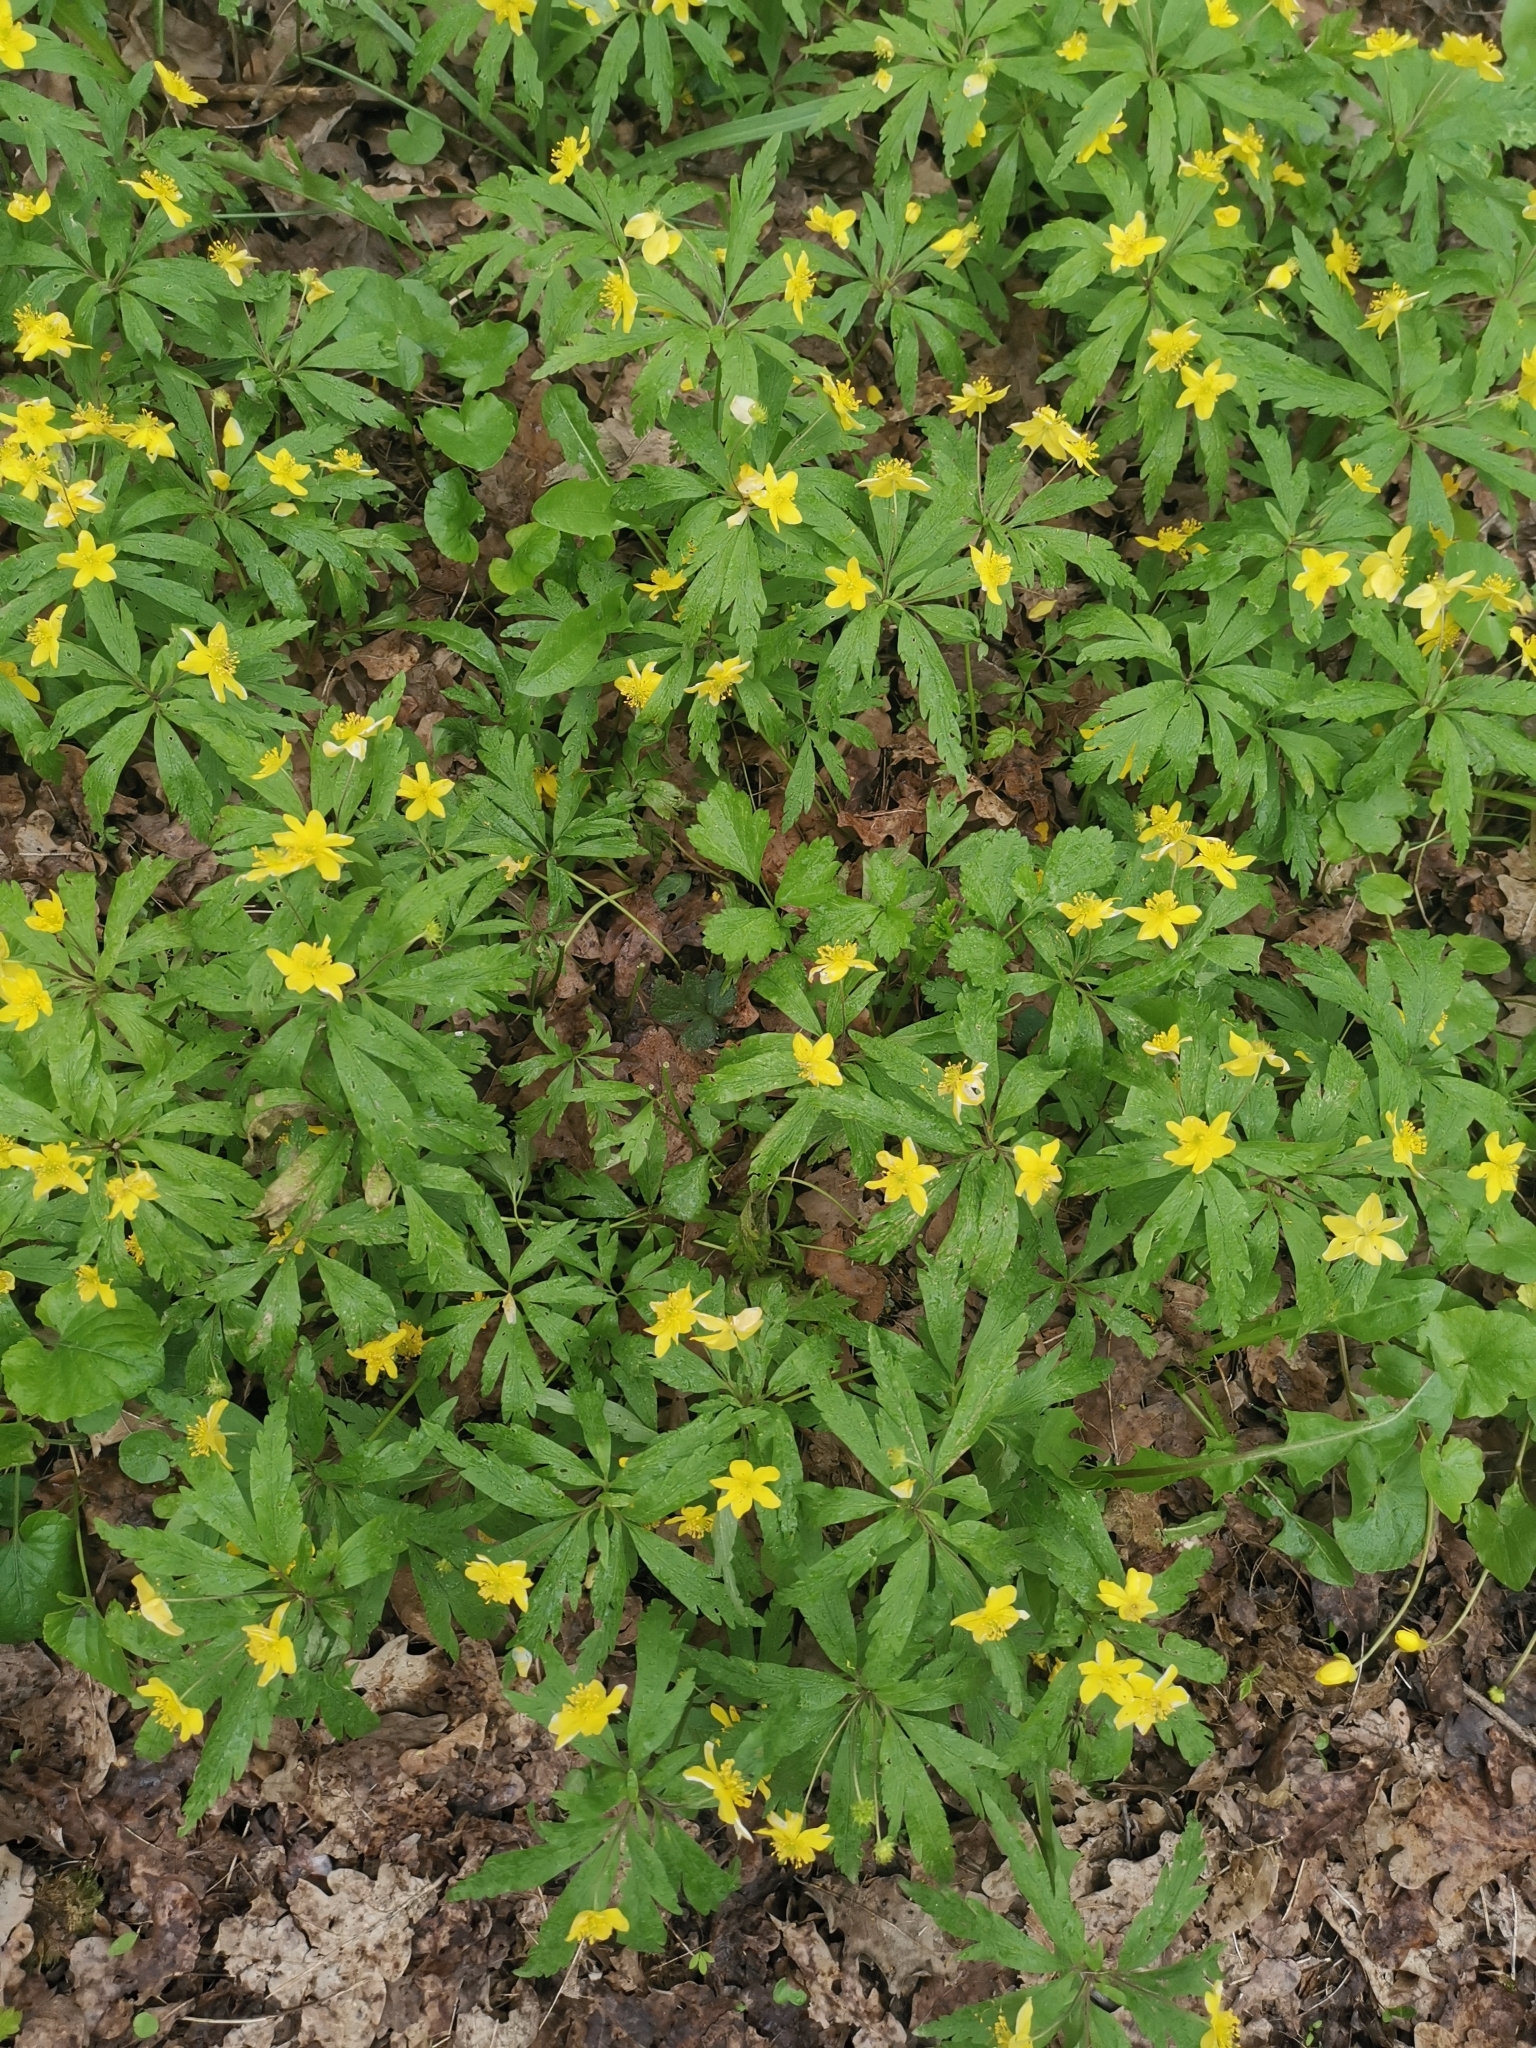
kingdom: Plantae
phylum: Tracheophyta
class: Magnoliopsida
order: Ranunculales
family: Ranunculaceae
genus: Anemone
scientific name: Anemone ranunculoides
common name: Yellow anemone
